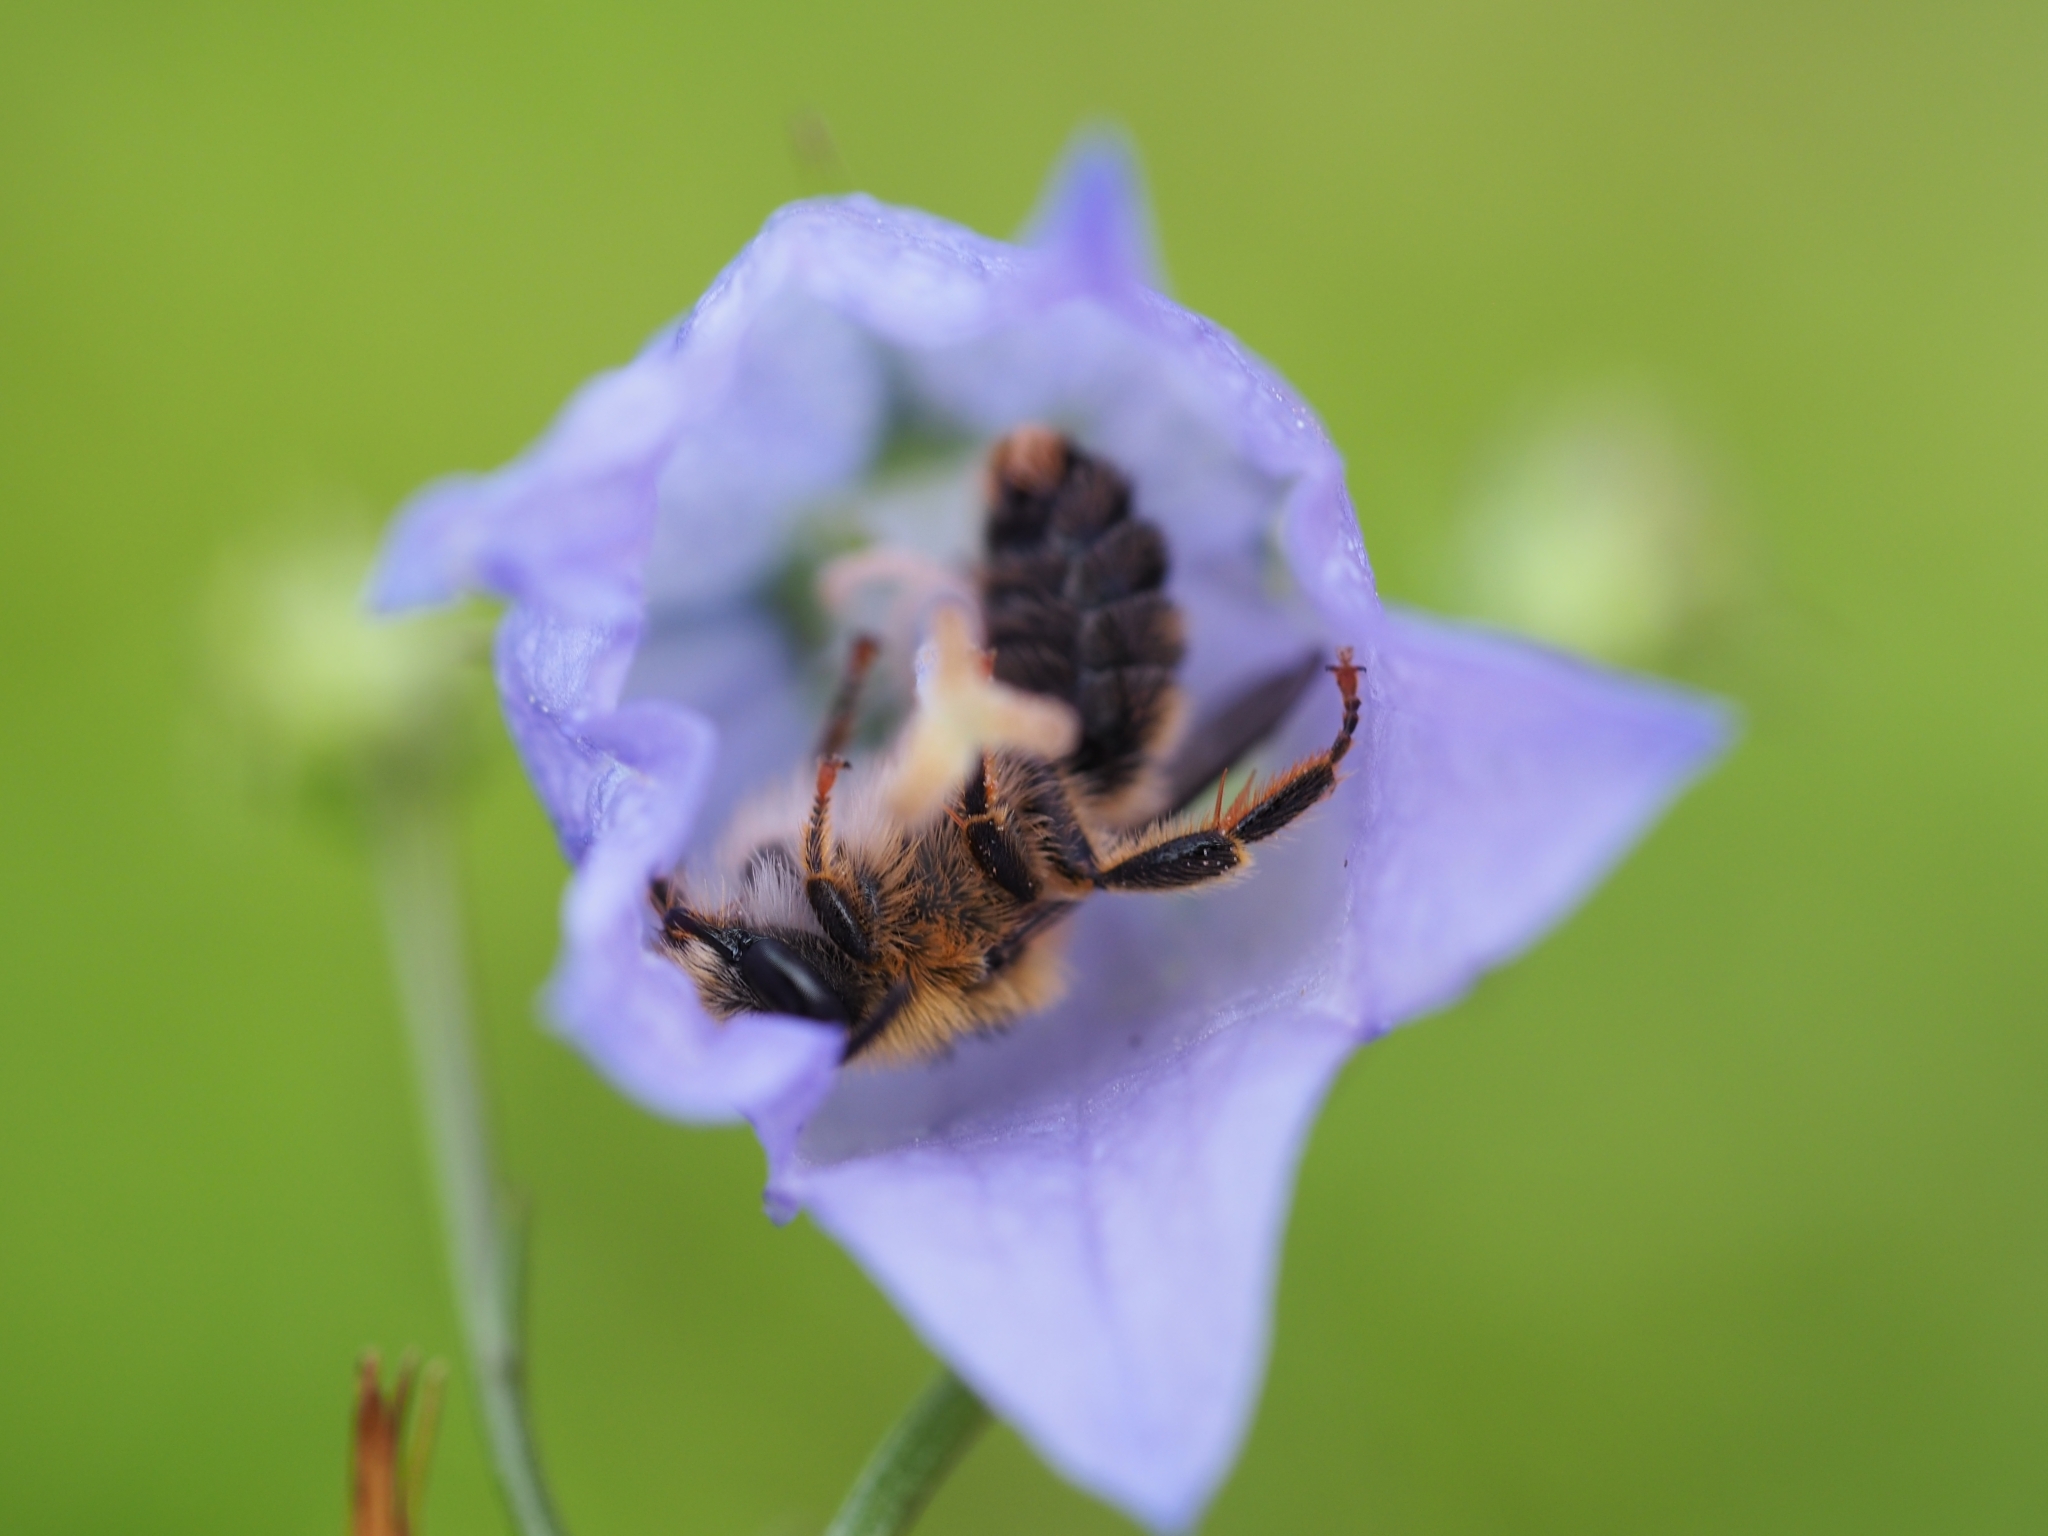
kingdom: Animalia
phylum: Arthropoda
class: Insecta
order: Hymenoptera
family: Melittidae
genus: Melitta
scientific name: Melitta haemorrhoidalis
